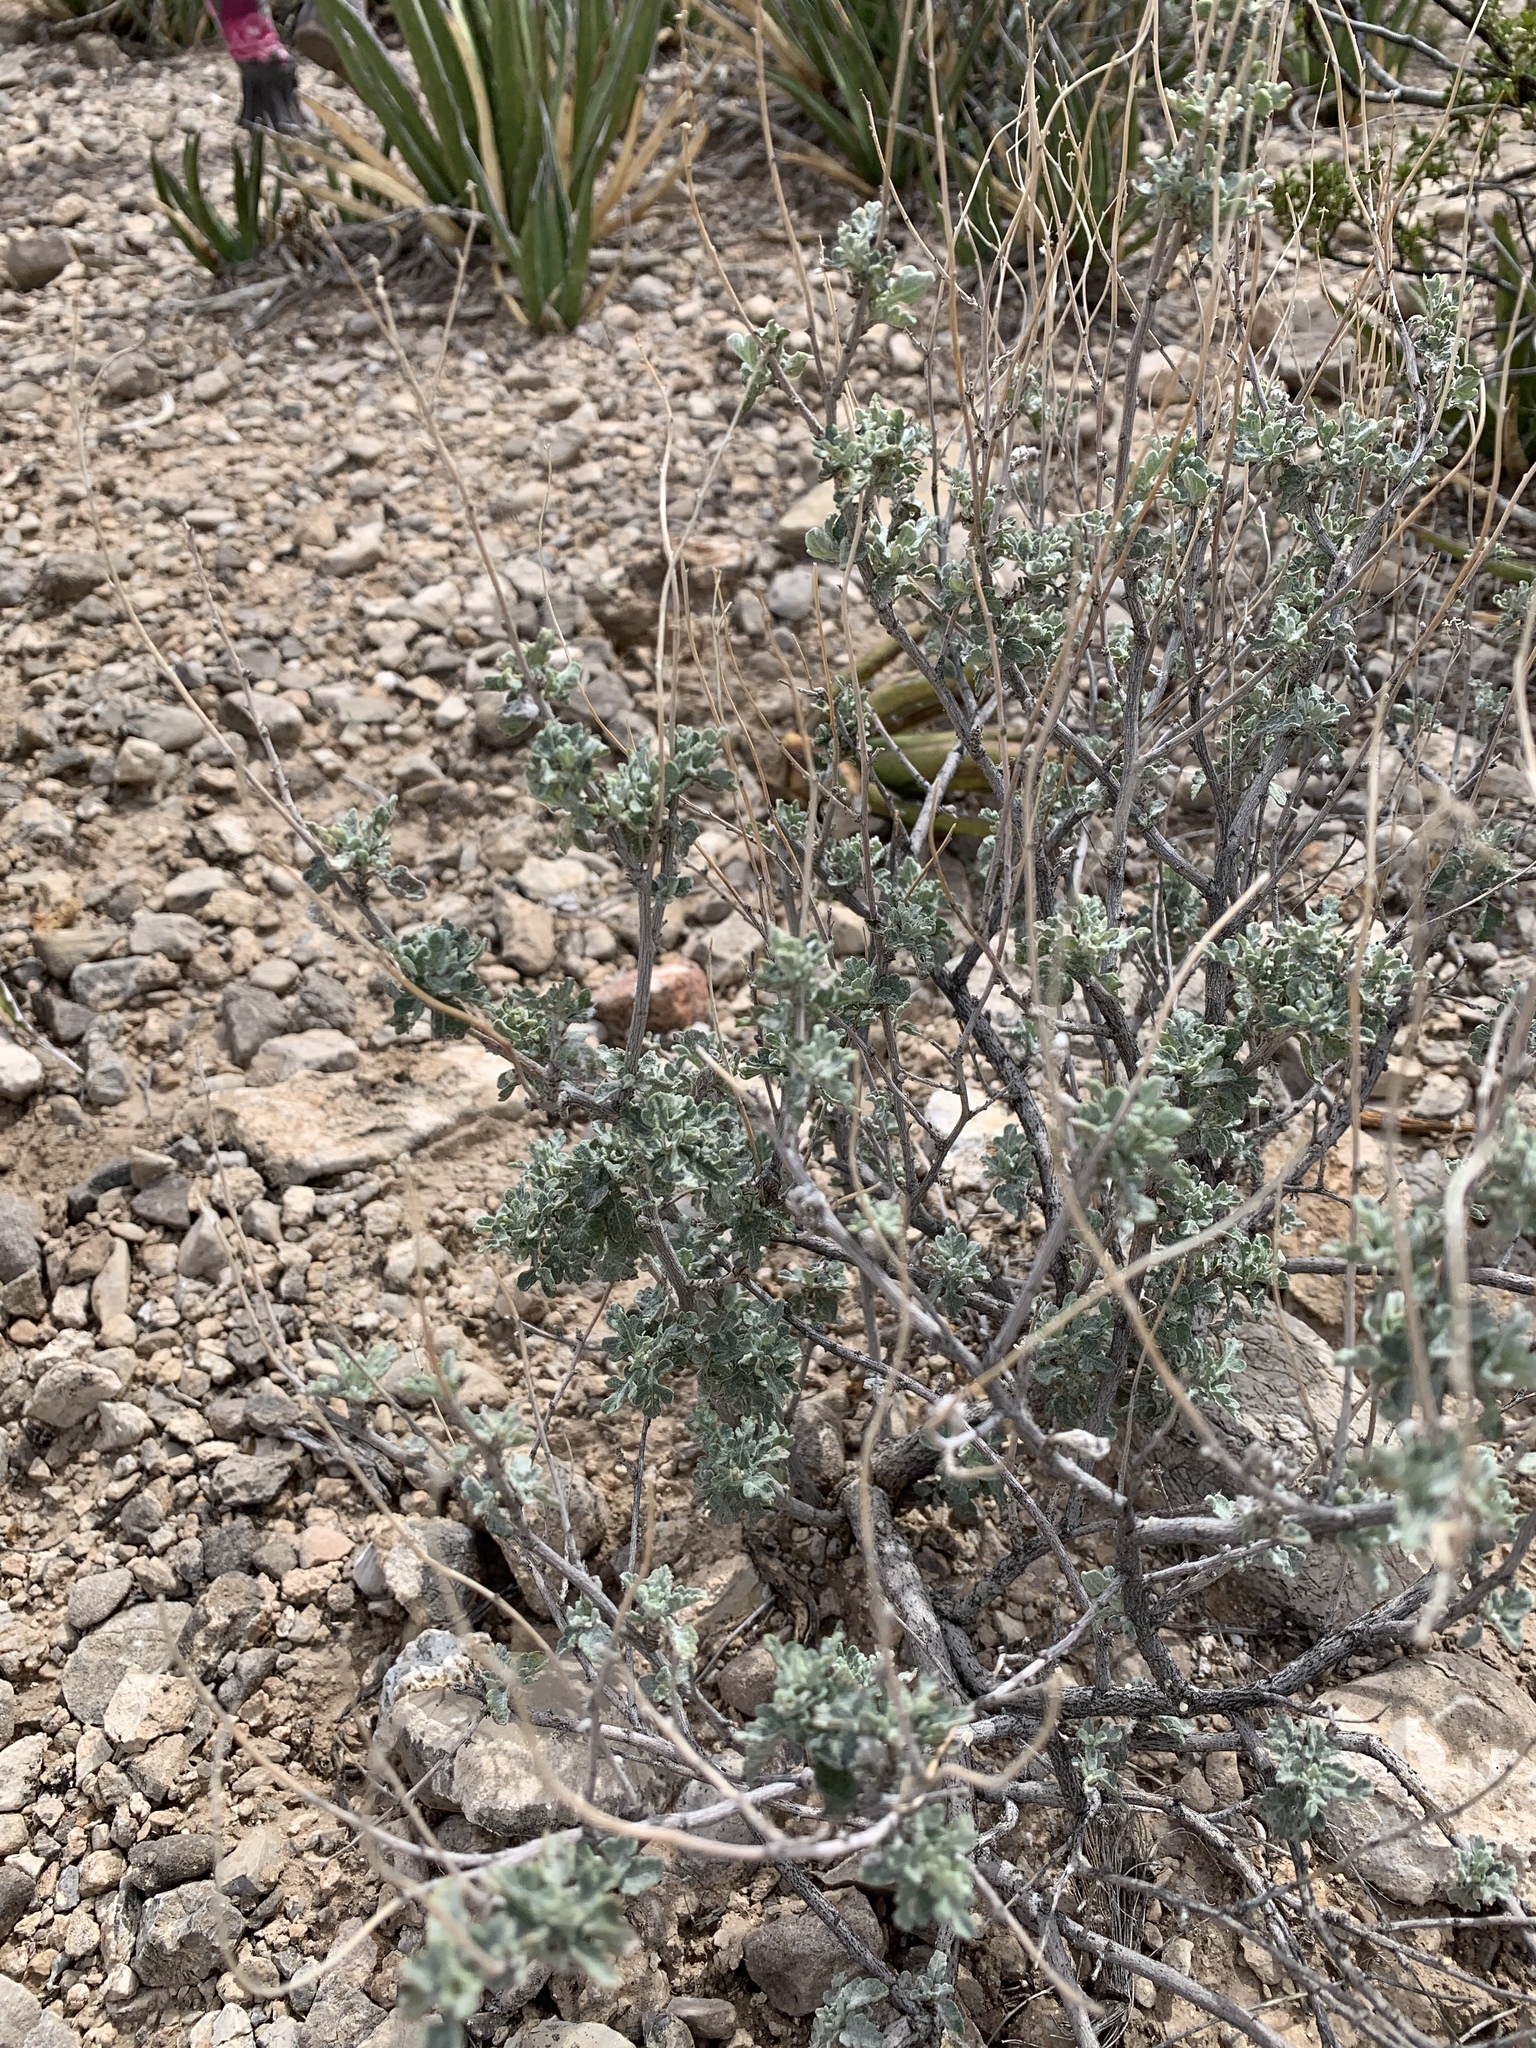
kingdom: Plantae
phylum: Tracheophyta
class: Magnoliopsida
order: Asterales
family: Asteraceae
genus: Parthenium
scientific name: Parthenium incanum
